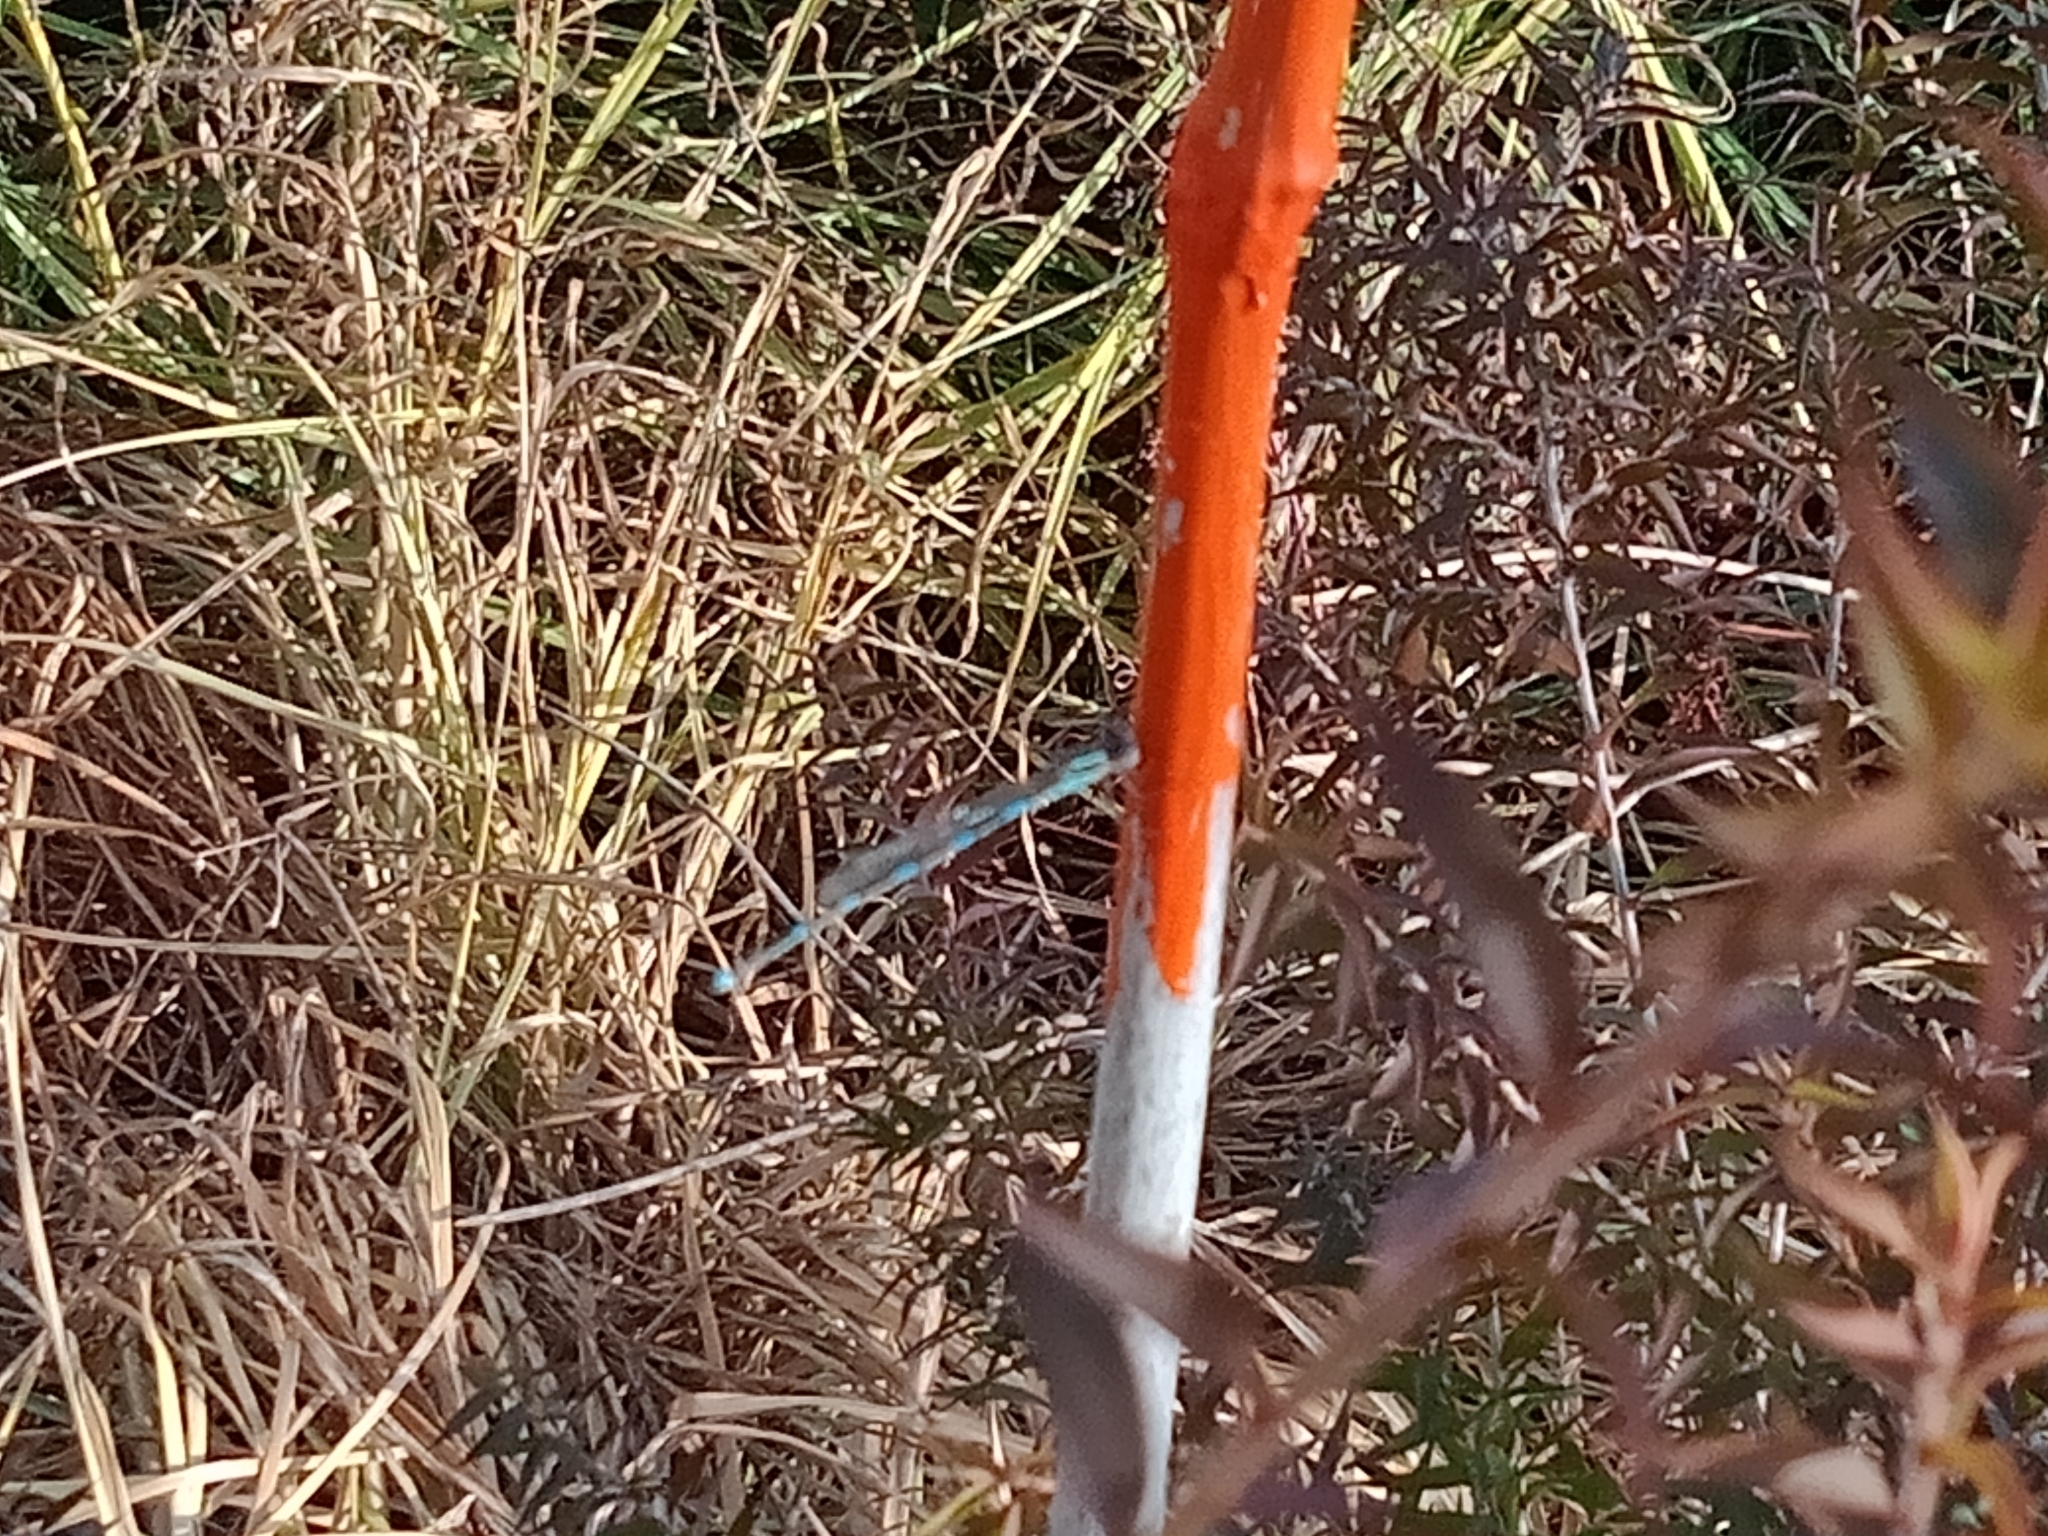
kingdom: Animalia
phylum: Arthropoda
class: Insecta
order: Odonata
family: Lestidae
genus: Austrolestes
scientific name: Austrolestes leda
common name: Wandering ringtail
